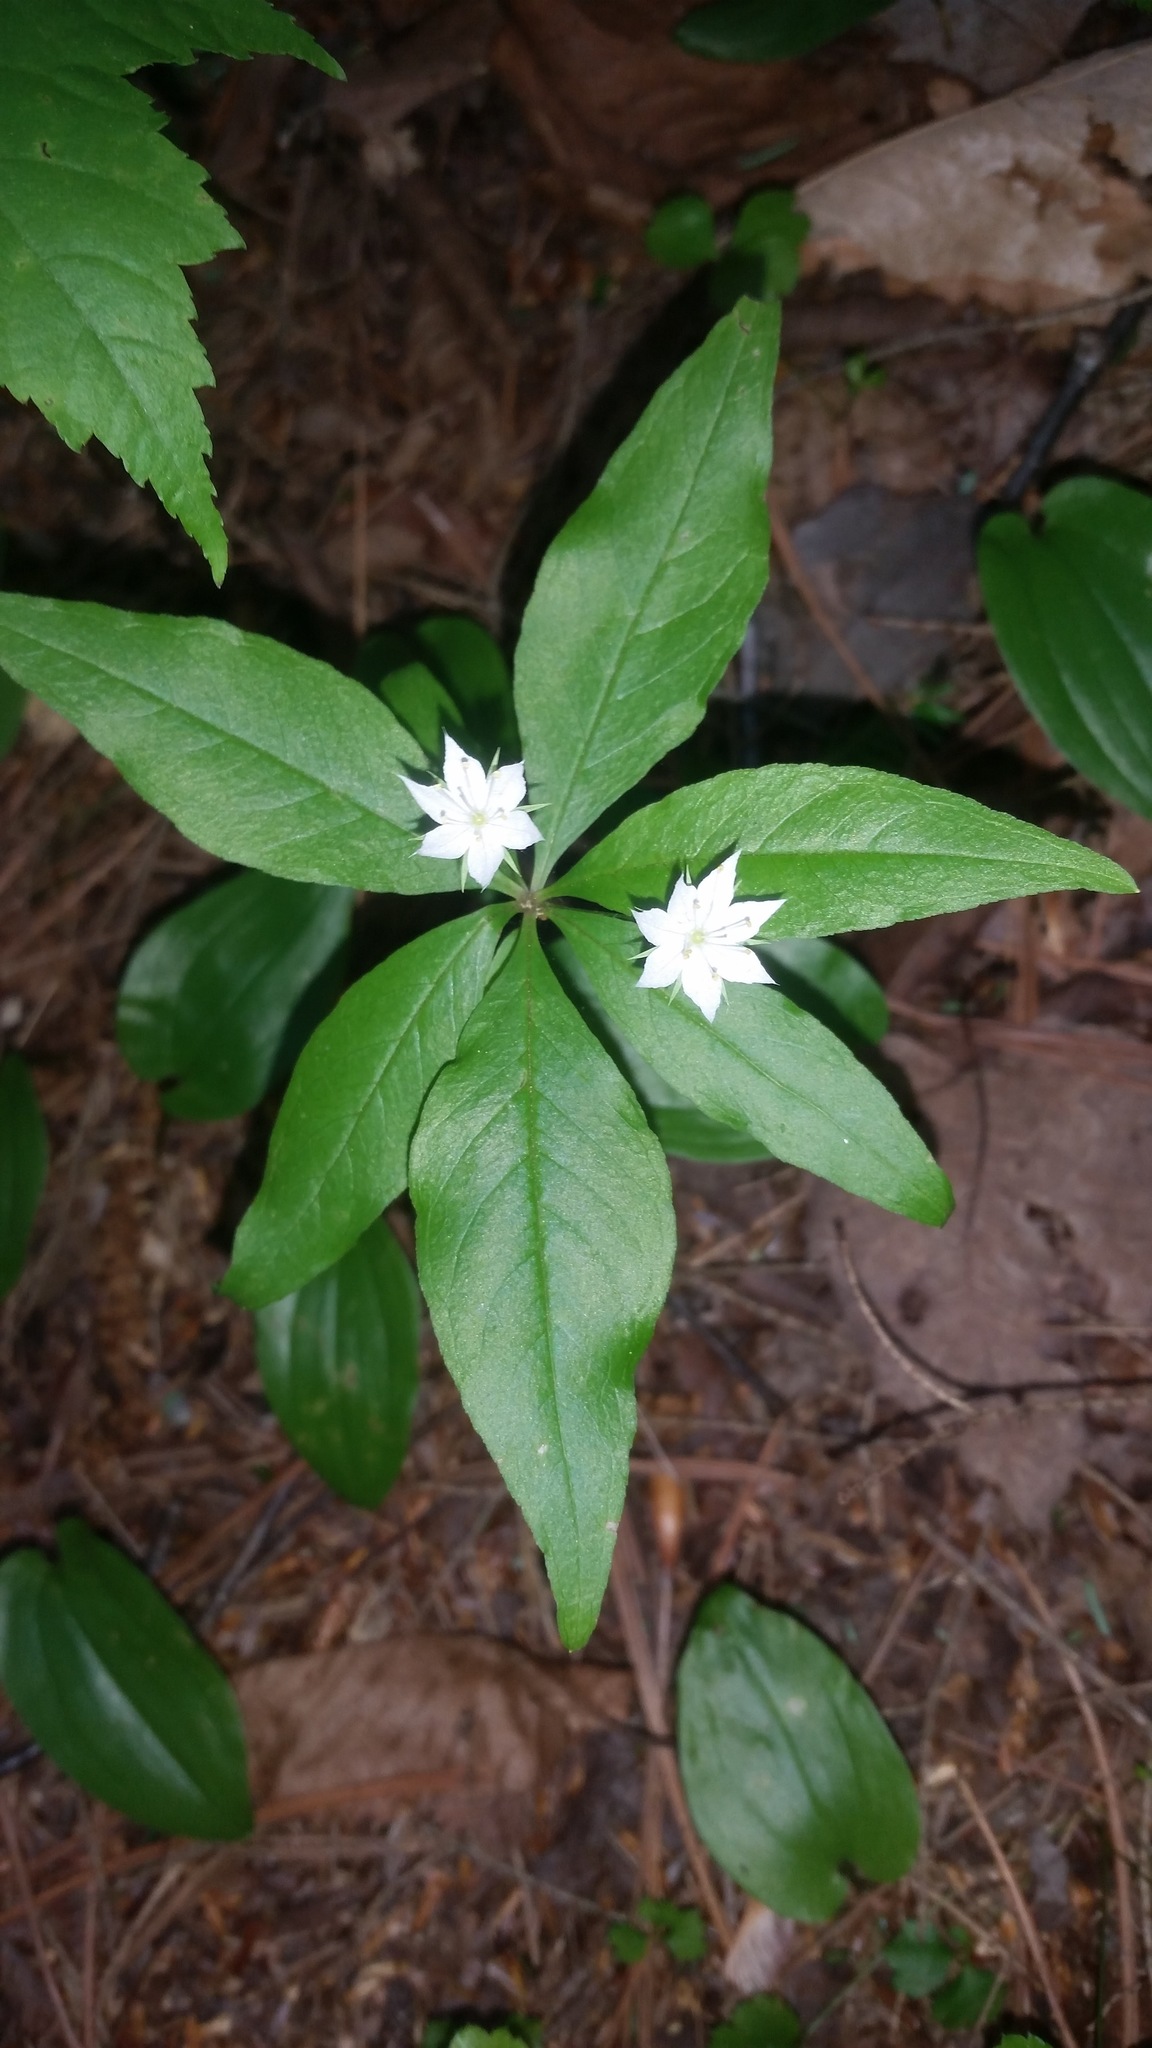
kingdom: Plantae
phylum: Tracheophyta
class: Magnoliopsida
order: Ericales
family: Primulaceae
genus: Lysimachia
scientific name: Lysimachia borealis
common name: American starflower
